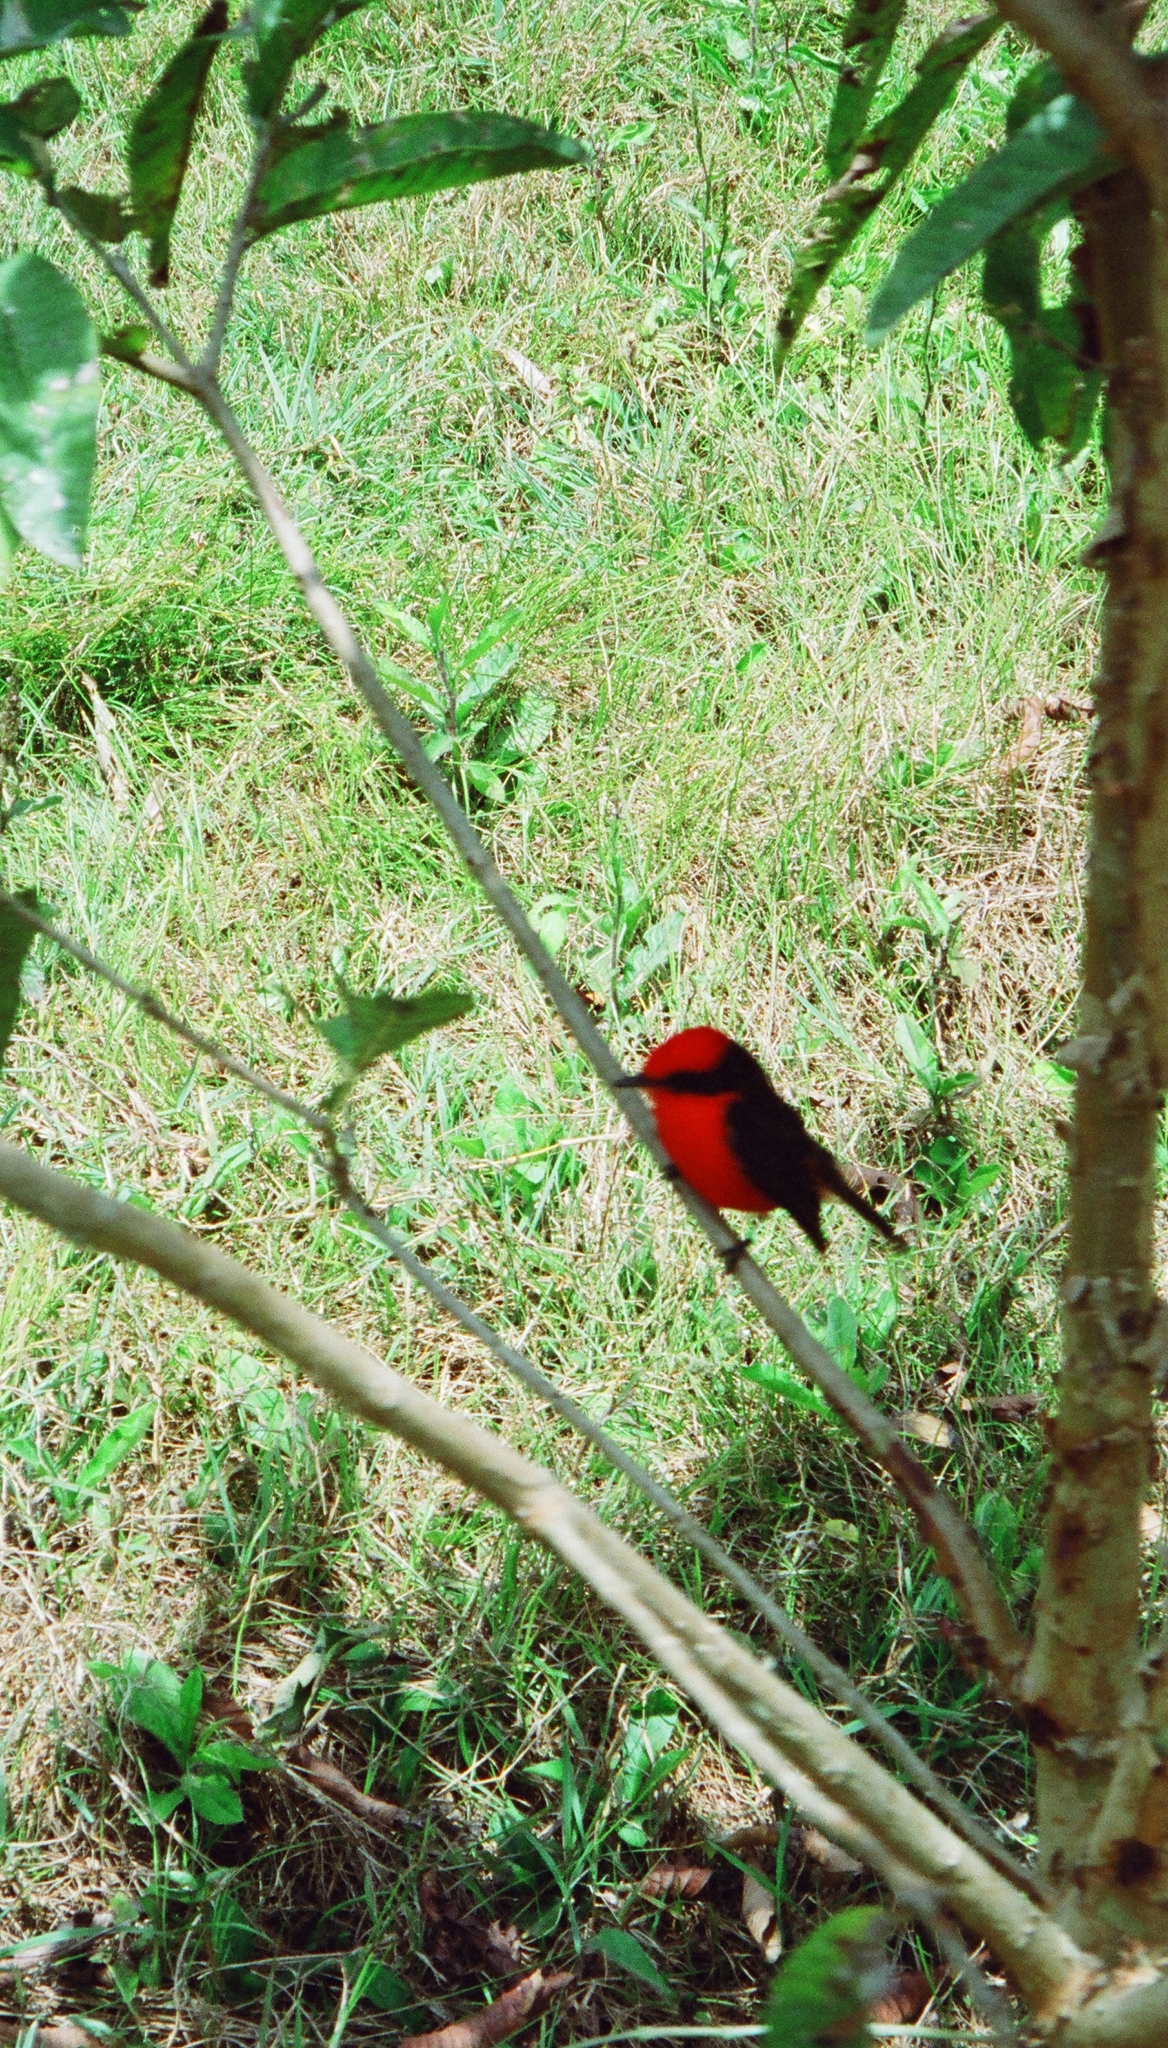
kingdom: Animalia
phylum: Chordata
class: Aves
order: Passeriformes
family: Tyrannidae
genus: Pyrocephalus
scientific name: Pyrocephalus rubinus
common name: Vermilion flycatcher
